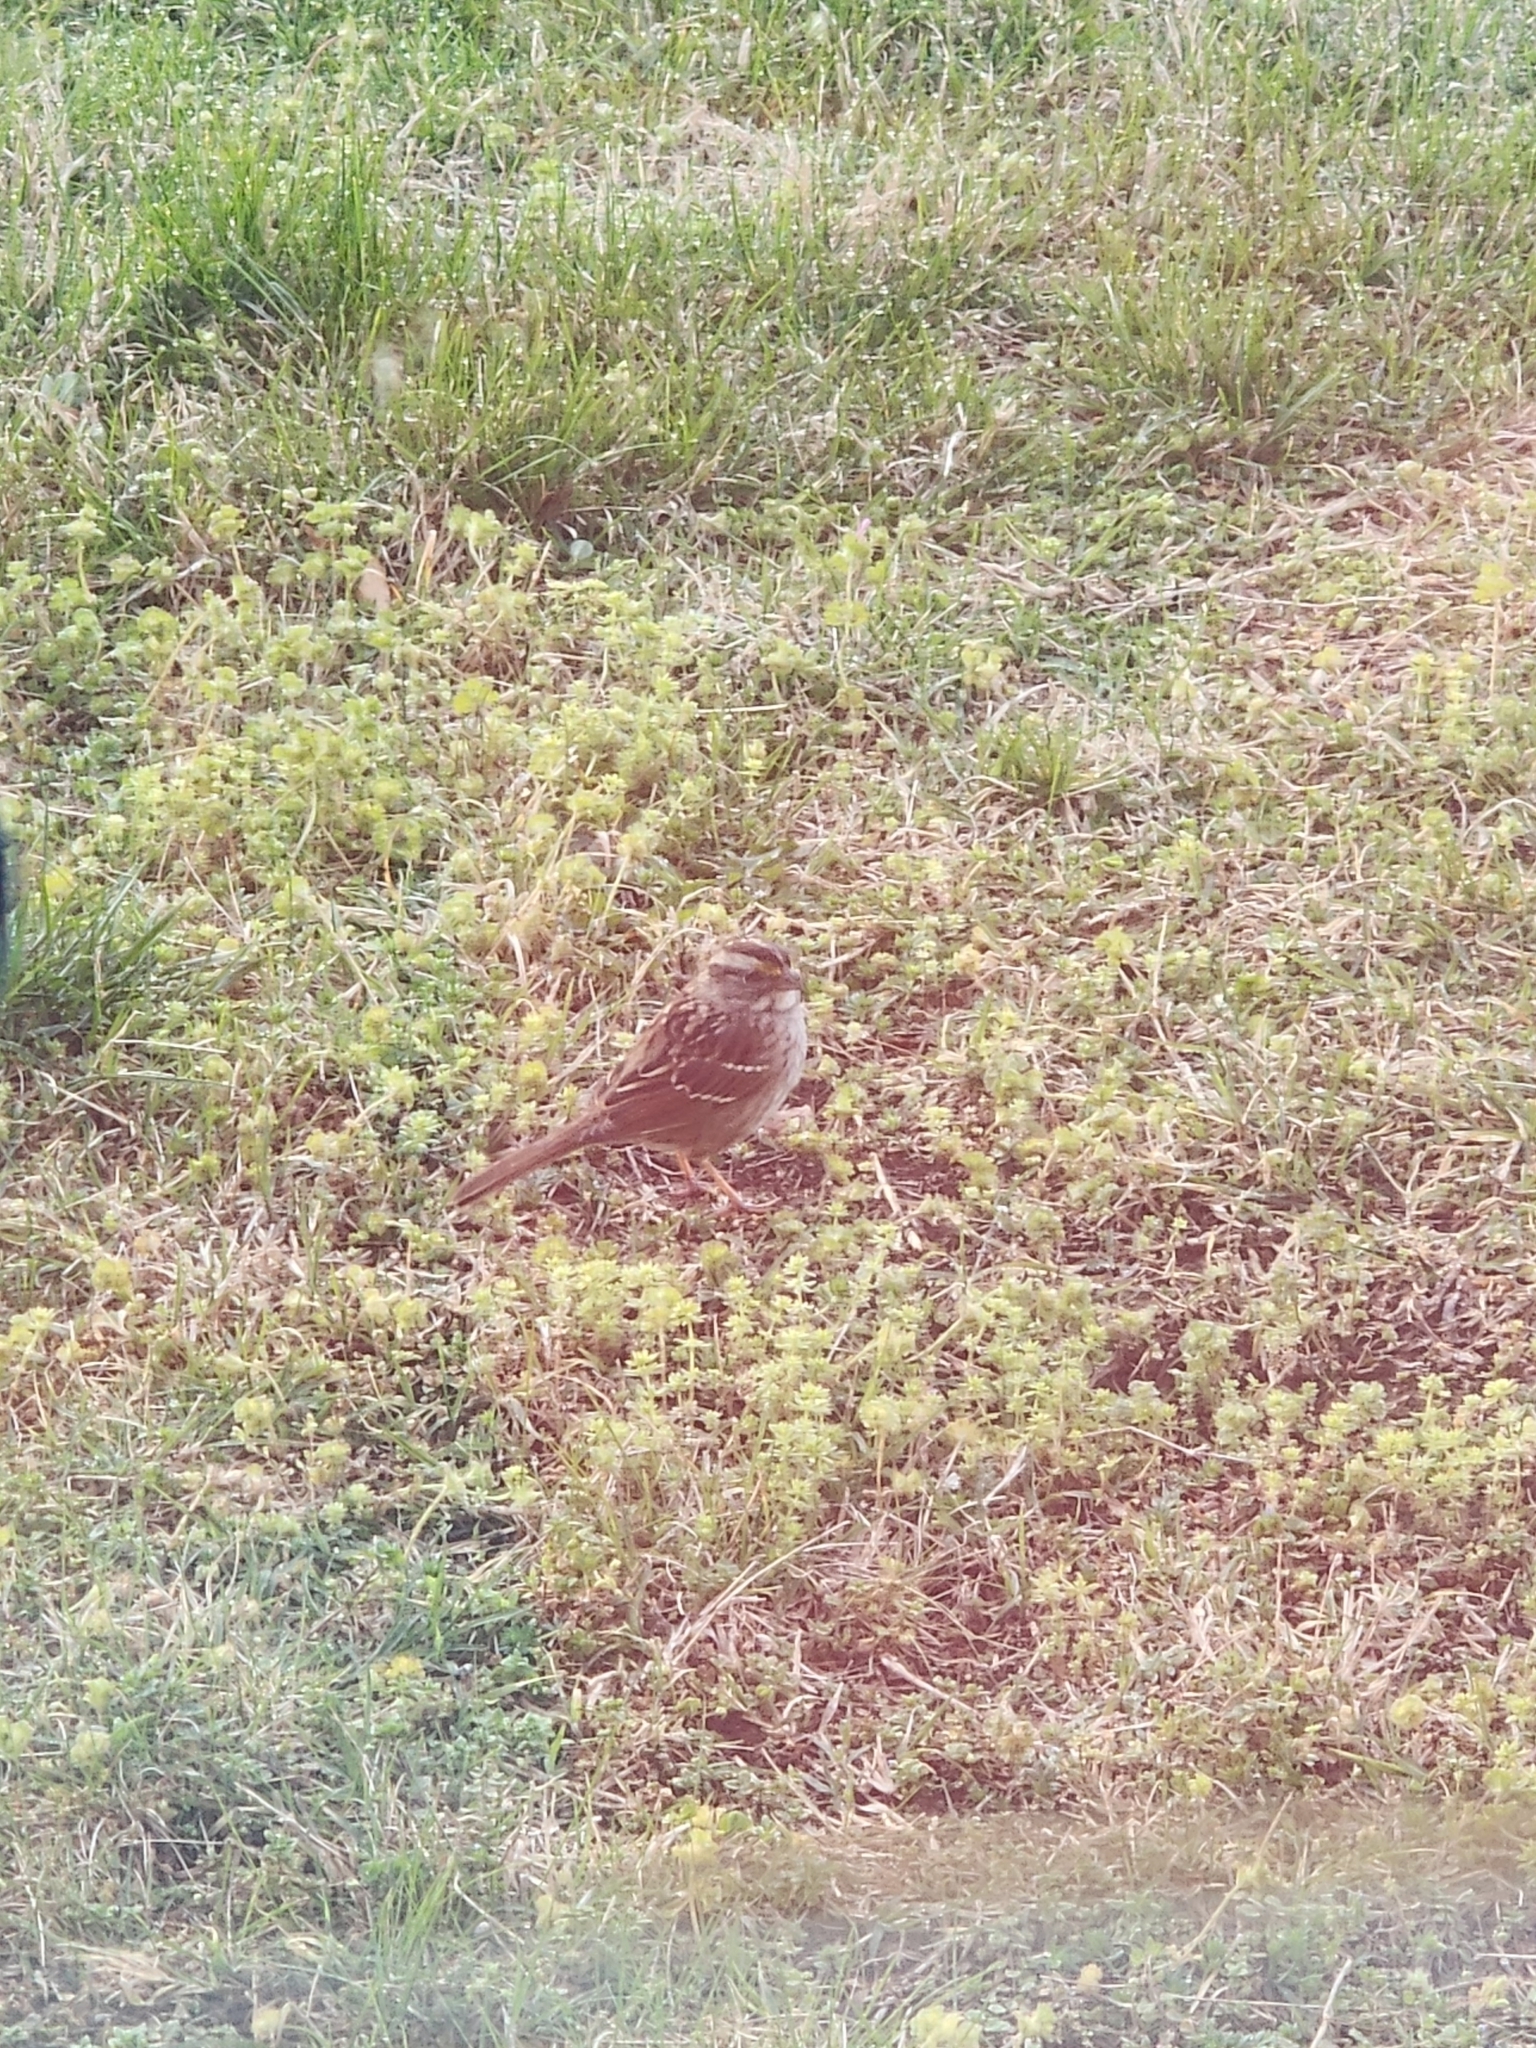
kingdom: Animalia
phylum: Chordata
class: Aves
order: Passeriformes
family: Passerellidae
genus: Zonotrichia
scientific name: Zonotrichia albicollis
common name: White-throated sparrow
